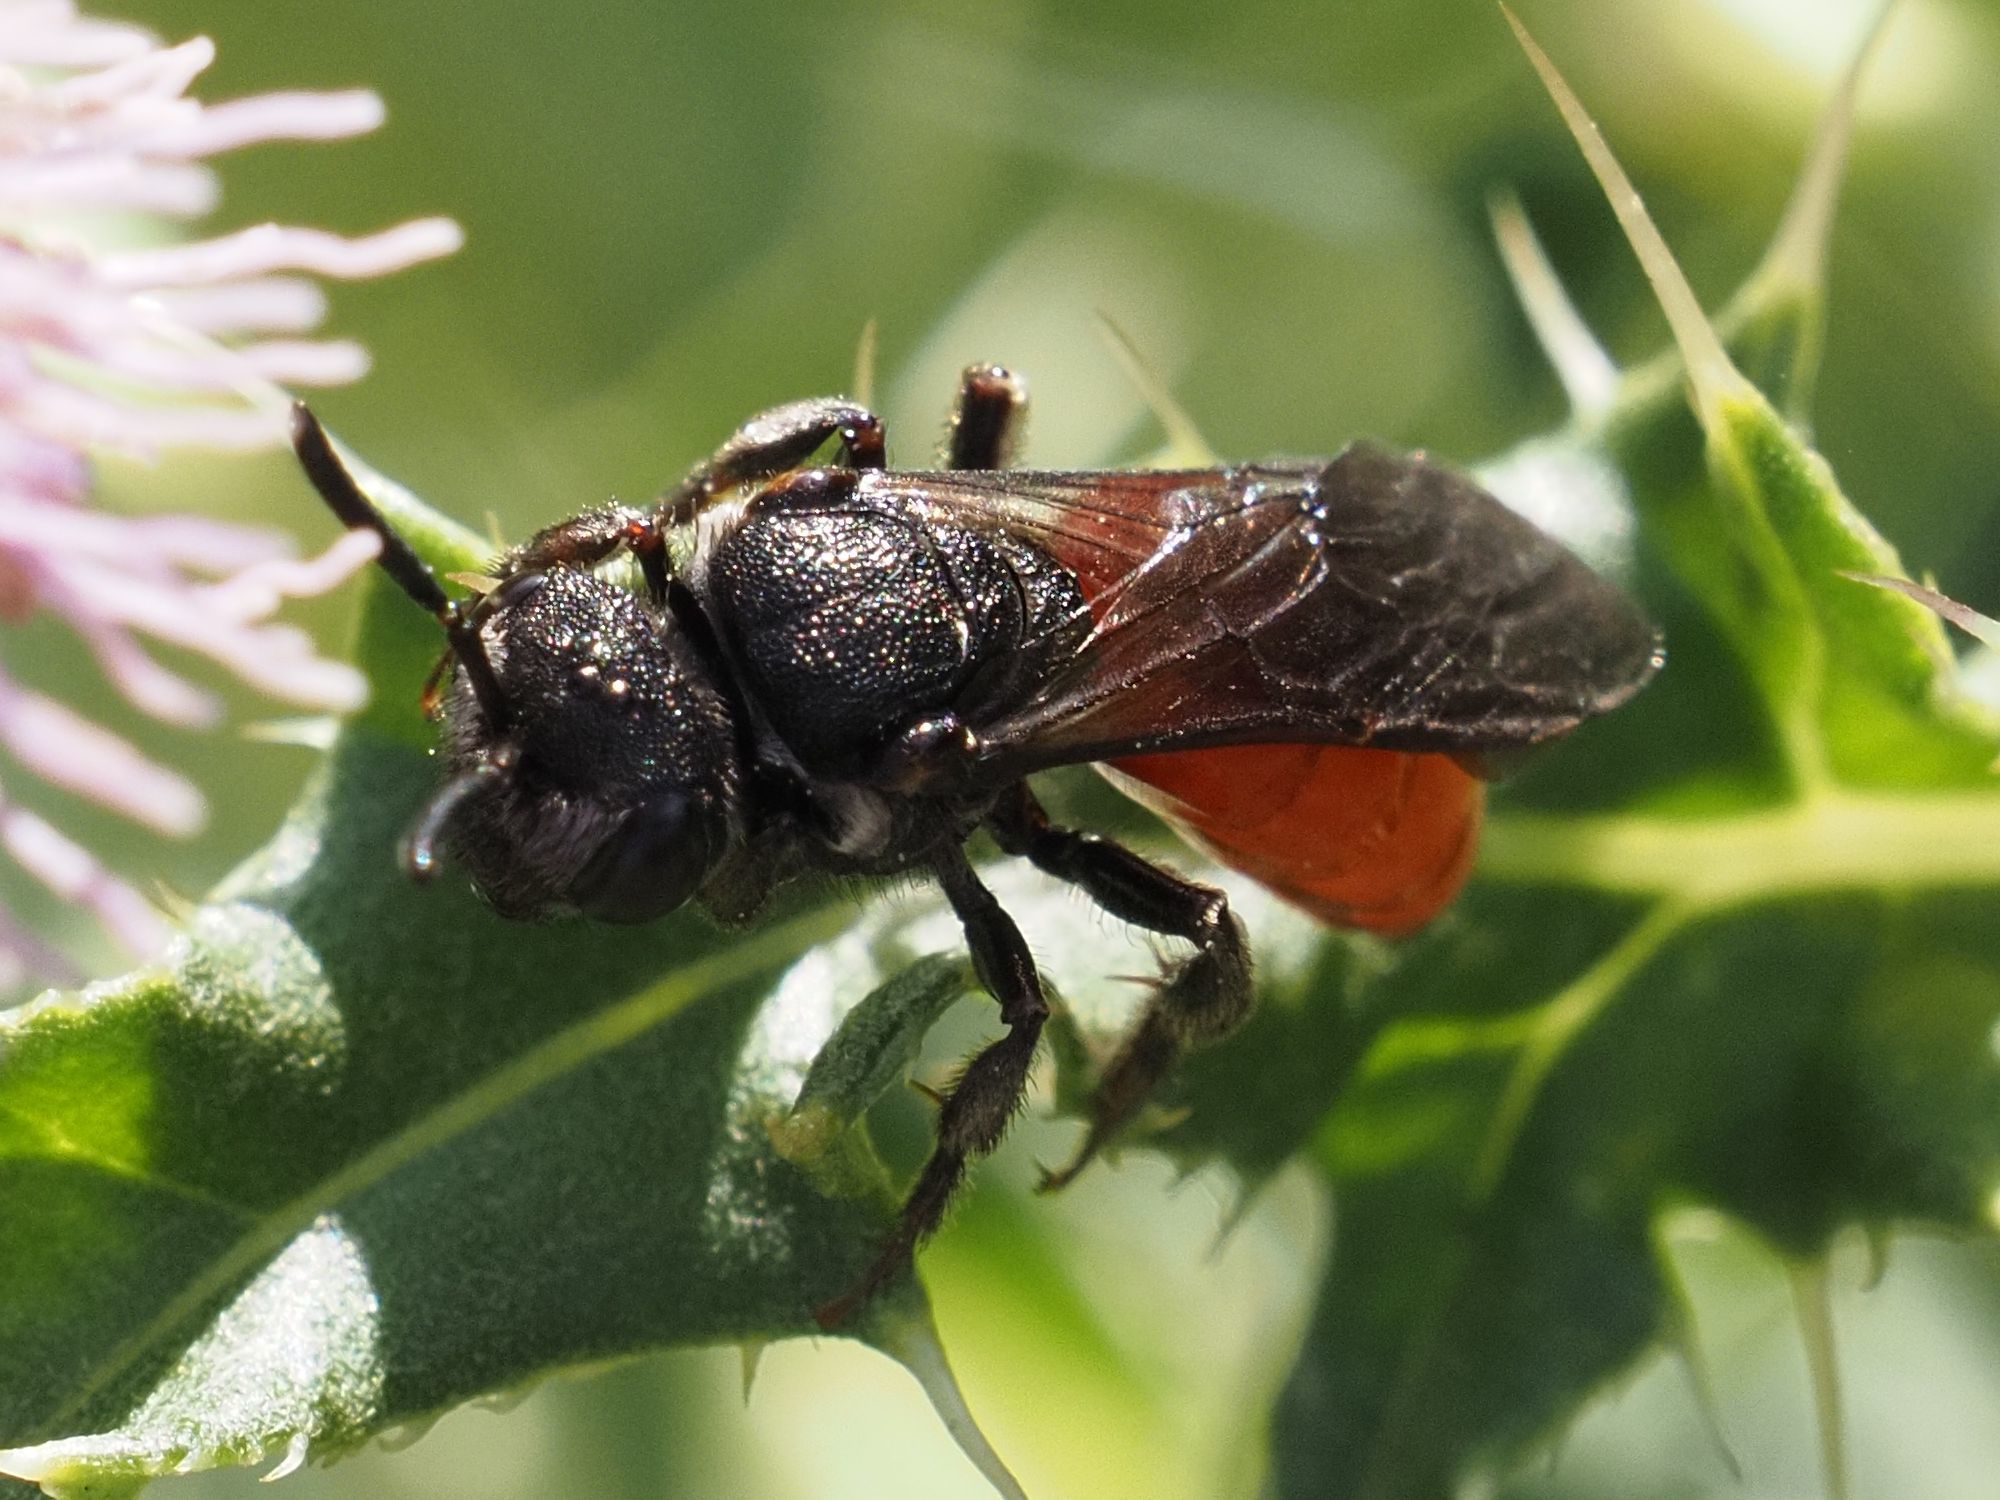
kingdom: Animalia
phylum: Arthropoda
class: Insecta
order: Hymenoptera
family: Halictidae
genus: Sphecodes
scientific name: Sphecodes albilabris
